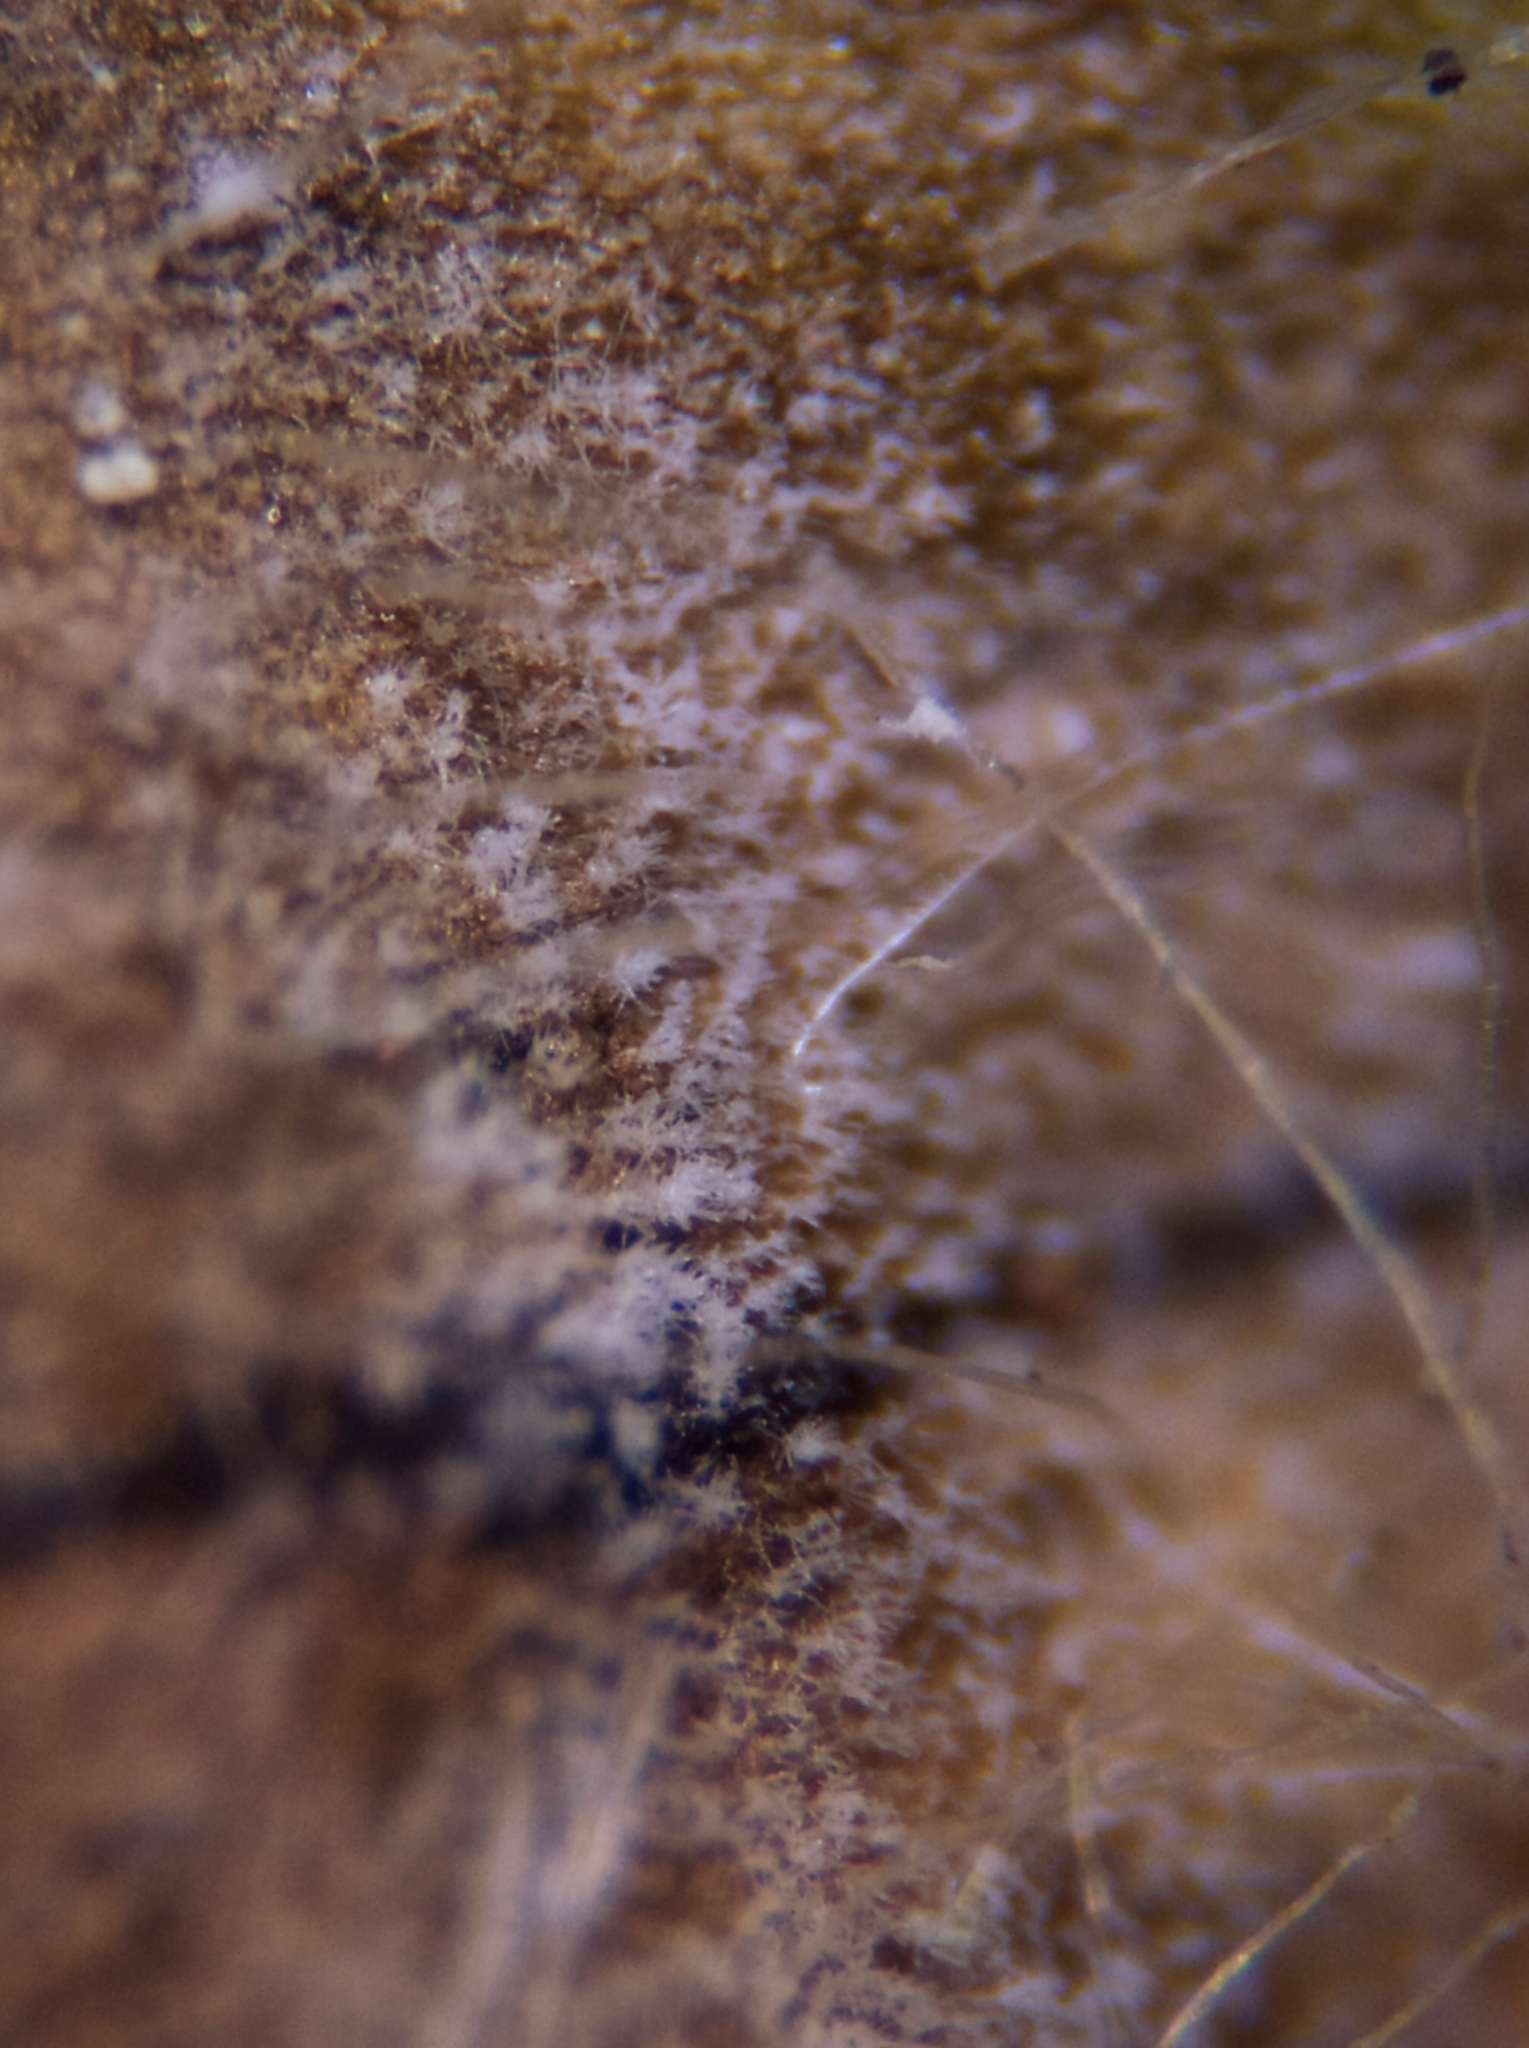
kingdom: Fungi
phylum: Ascomycota
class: Dothideomycetes
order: Mycosphaerellales
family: Mycosphaerellaceae
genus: Ramularia
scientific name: Ramularia rhabdospora
